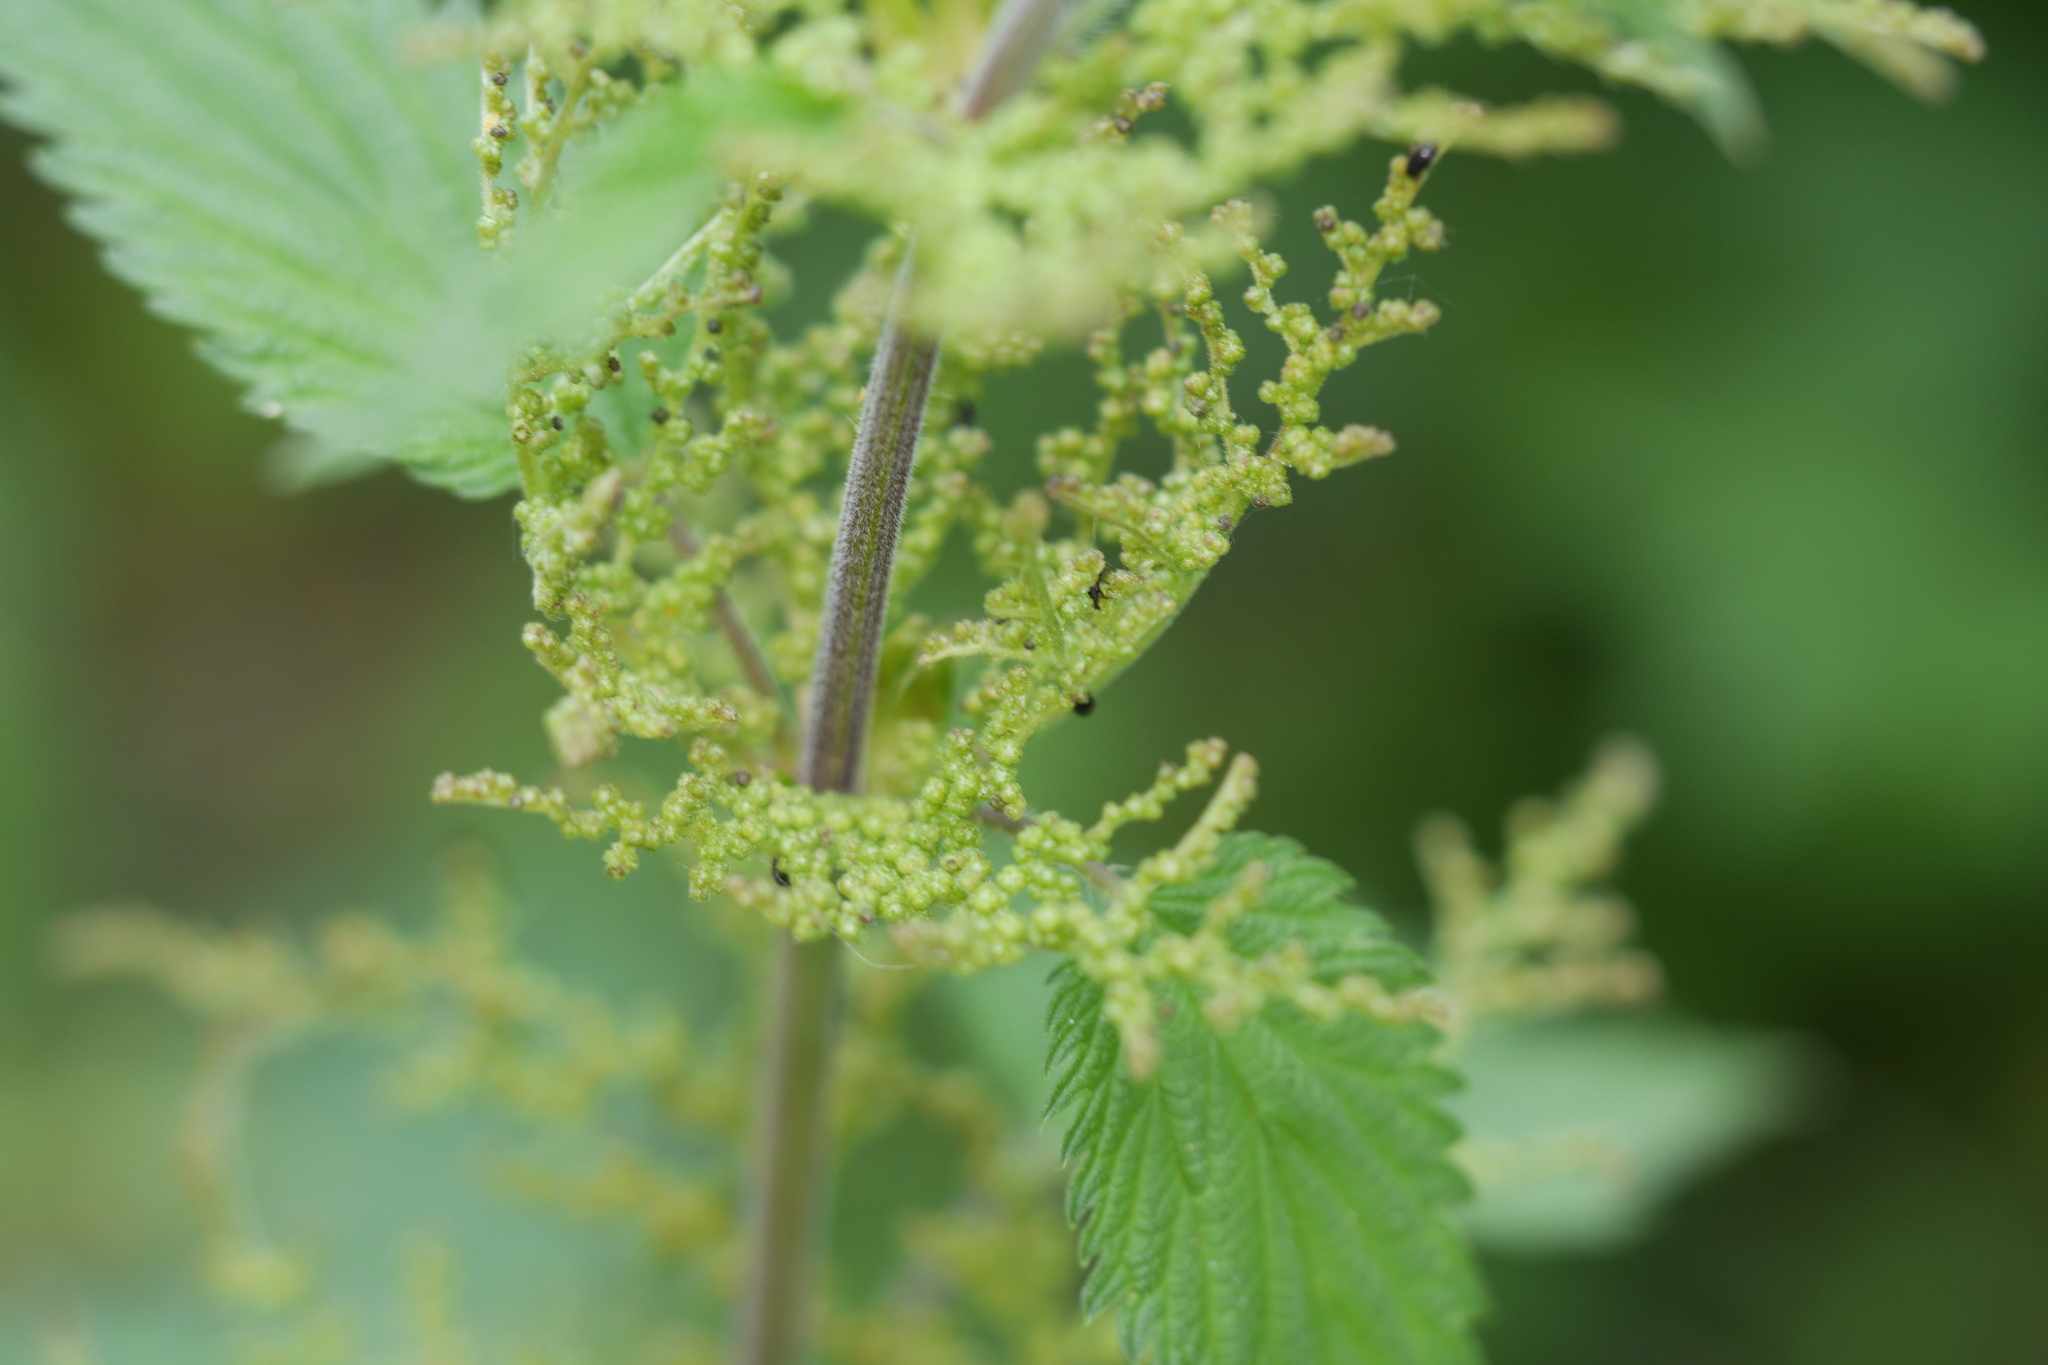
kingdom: Plantae
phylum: Tracheophyta
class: Magnoliopsida
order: Rosales
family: Urticaceae
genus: Urtica
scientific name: Urtica dioica
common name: Common nettle
